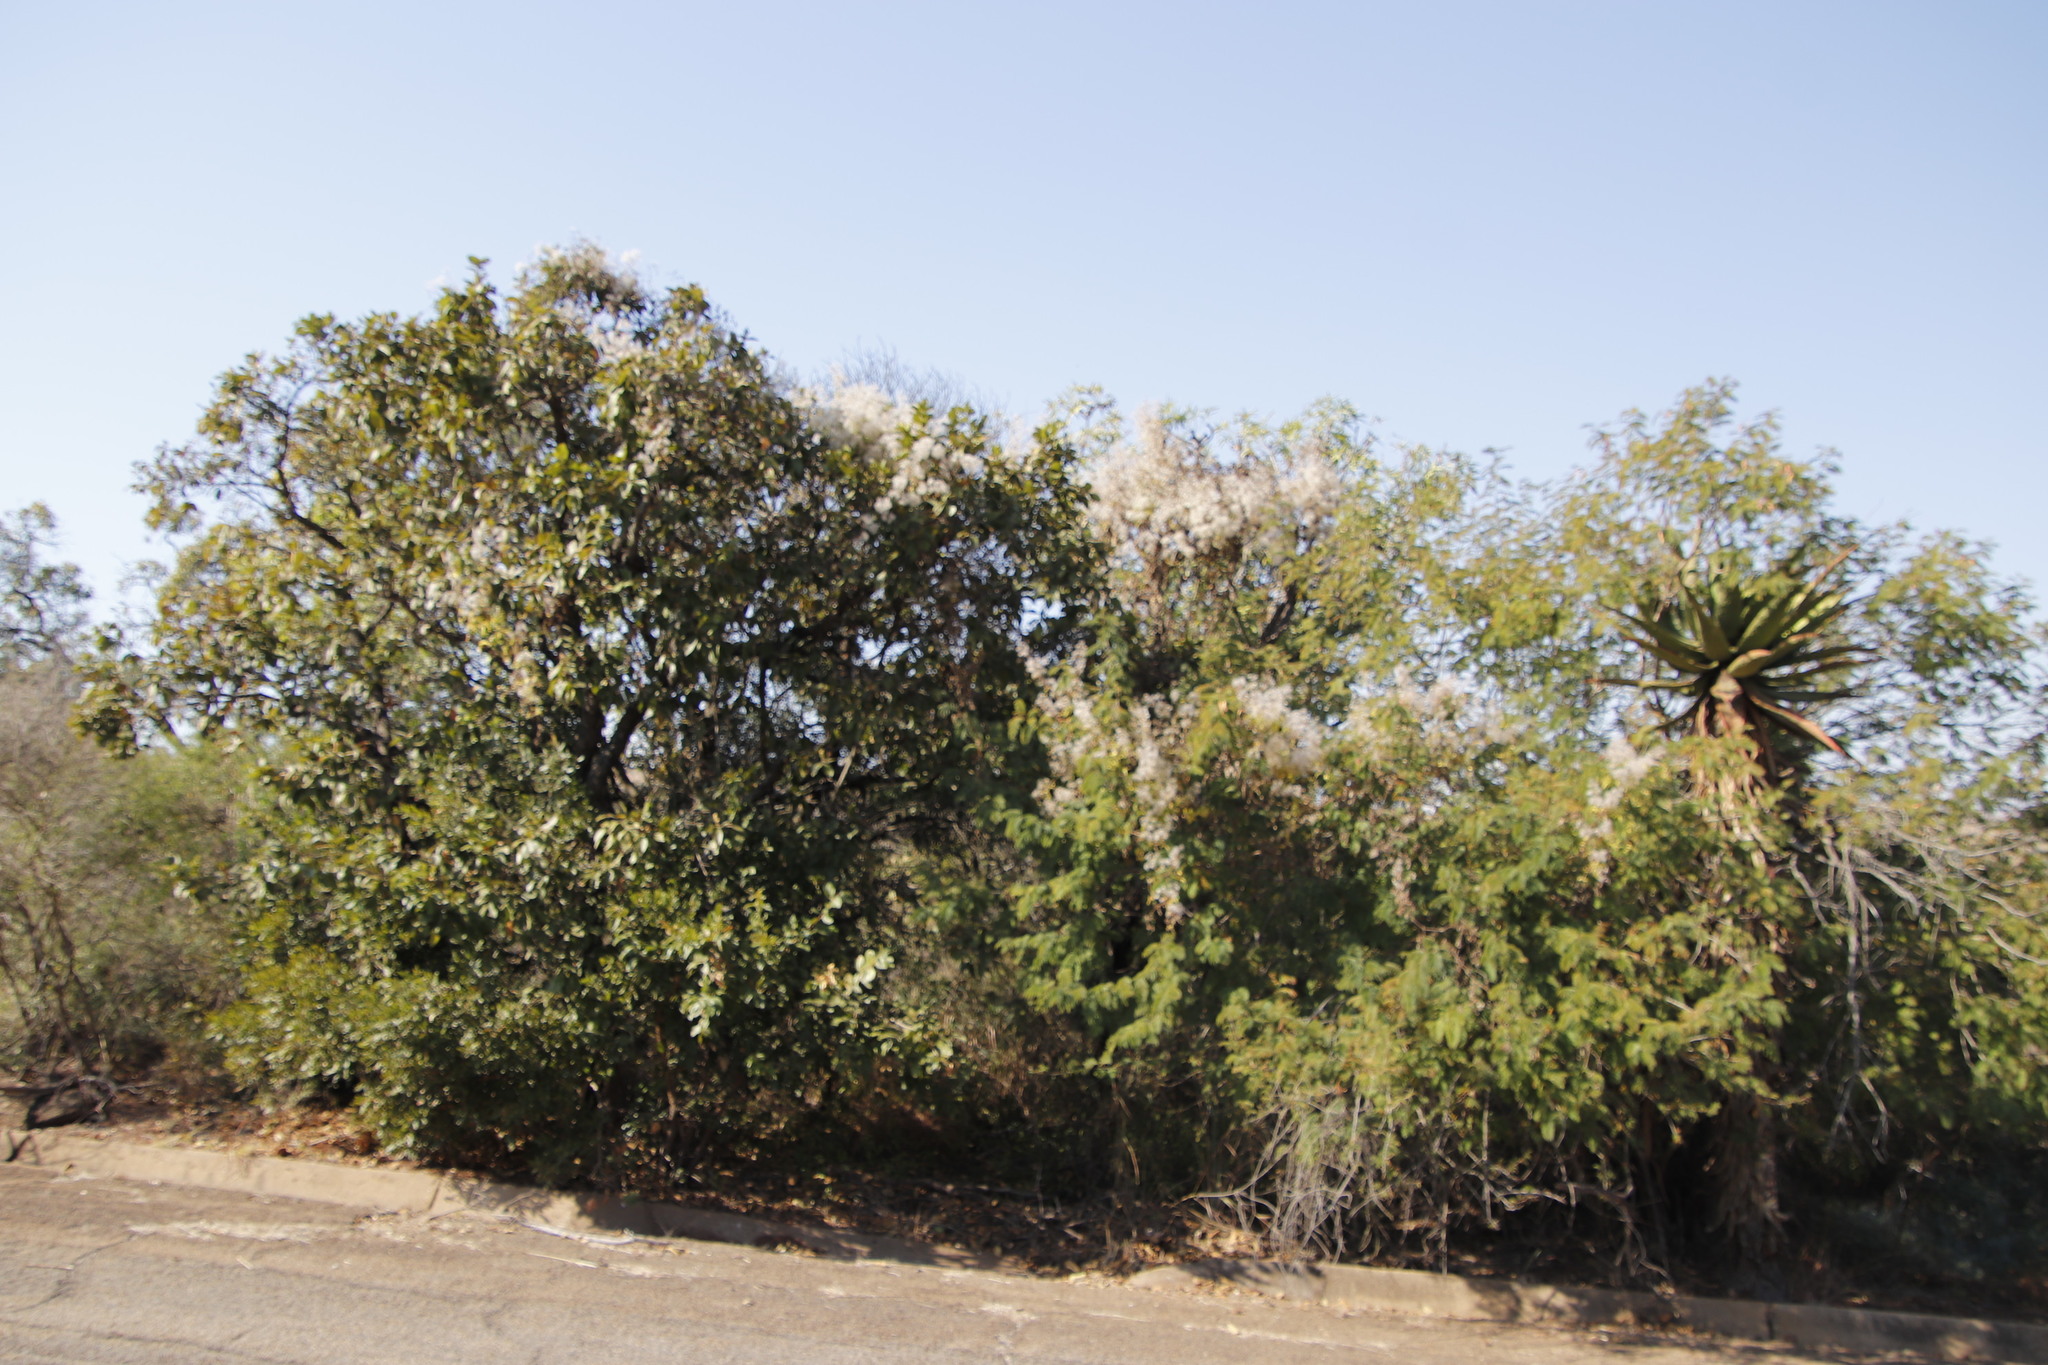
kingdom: Plantae
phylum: Tracheophyta
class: Magnoliopsida
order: Ranunculales
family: Ranunculaceae
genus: Clematis
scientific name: Clematis brachiata
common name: Traveler's-joy
